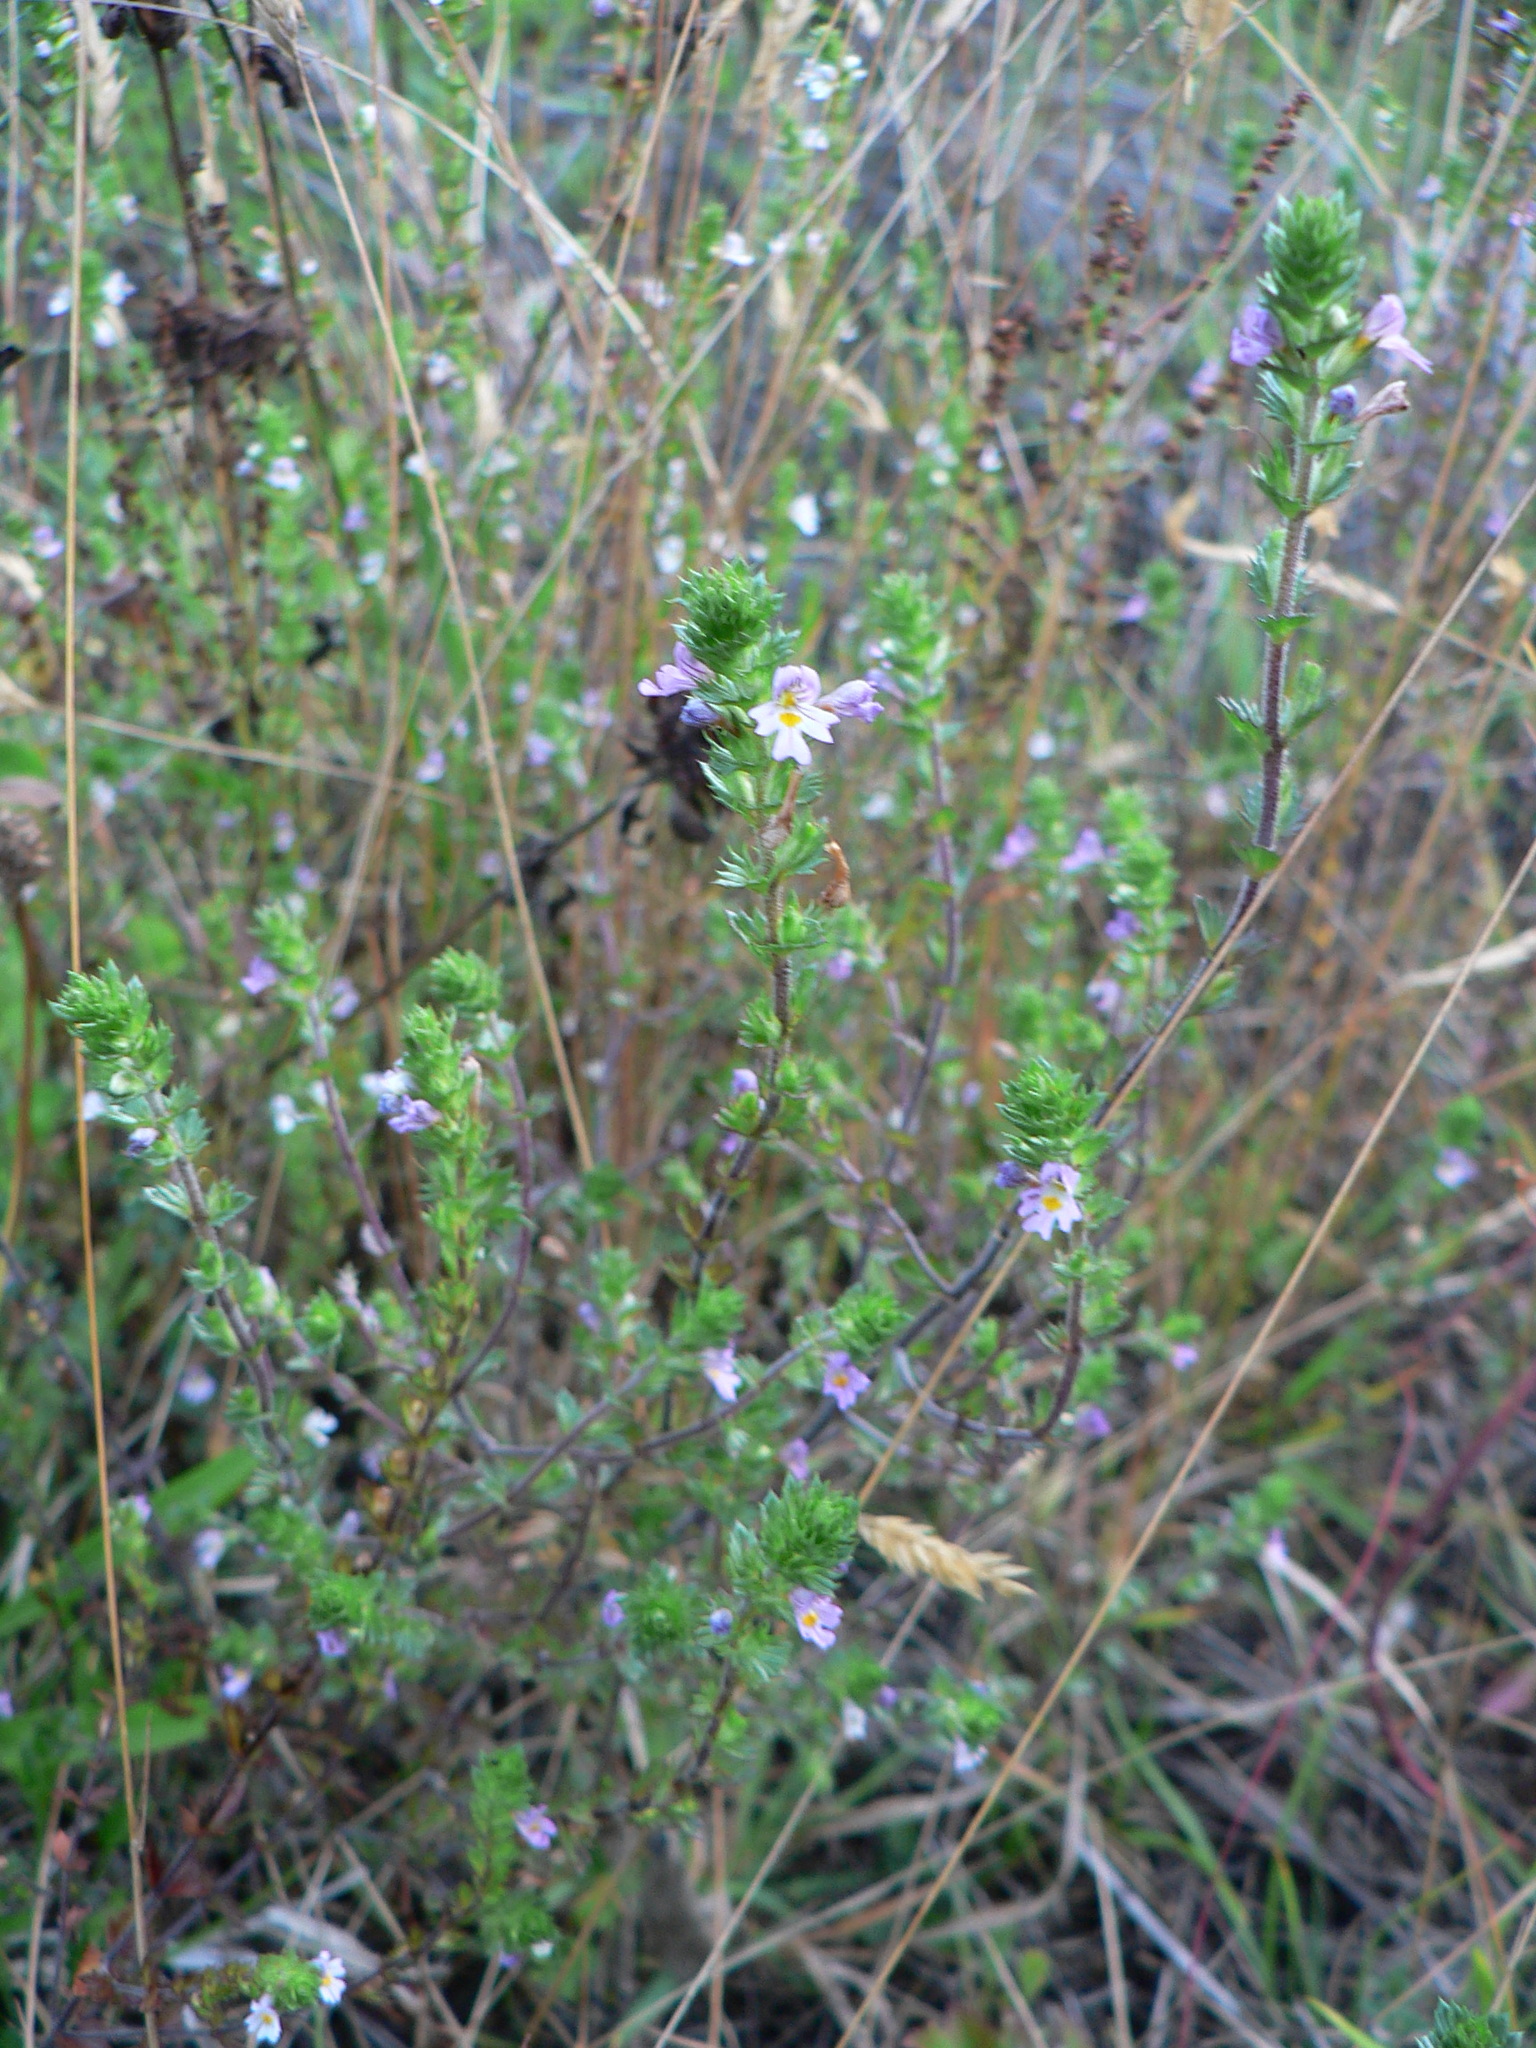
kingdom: Plantae
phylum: Tracheophyta
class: Magnoliopsida
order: Lamiales
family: Orobanchaceae
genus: Euphrasia
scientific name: Euphrasia nemorosa
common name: Common eyebright
